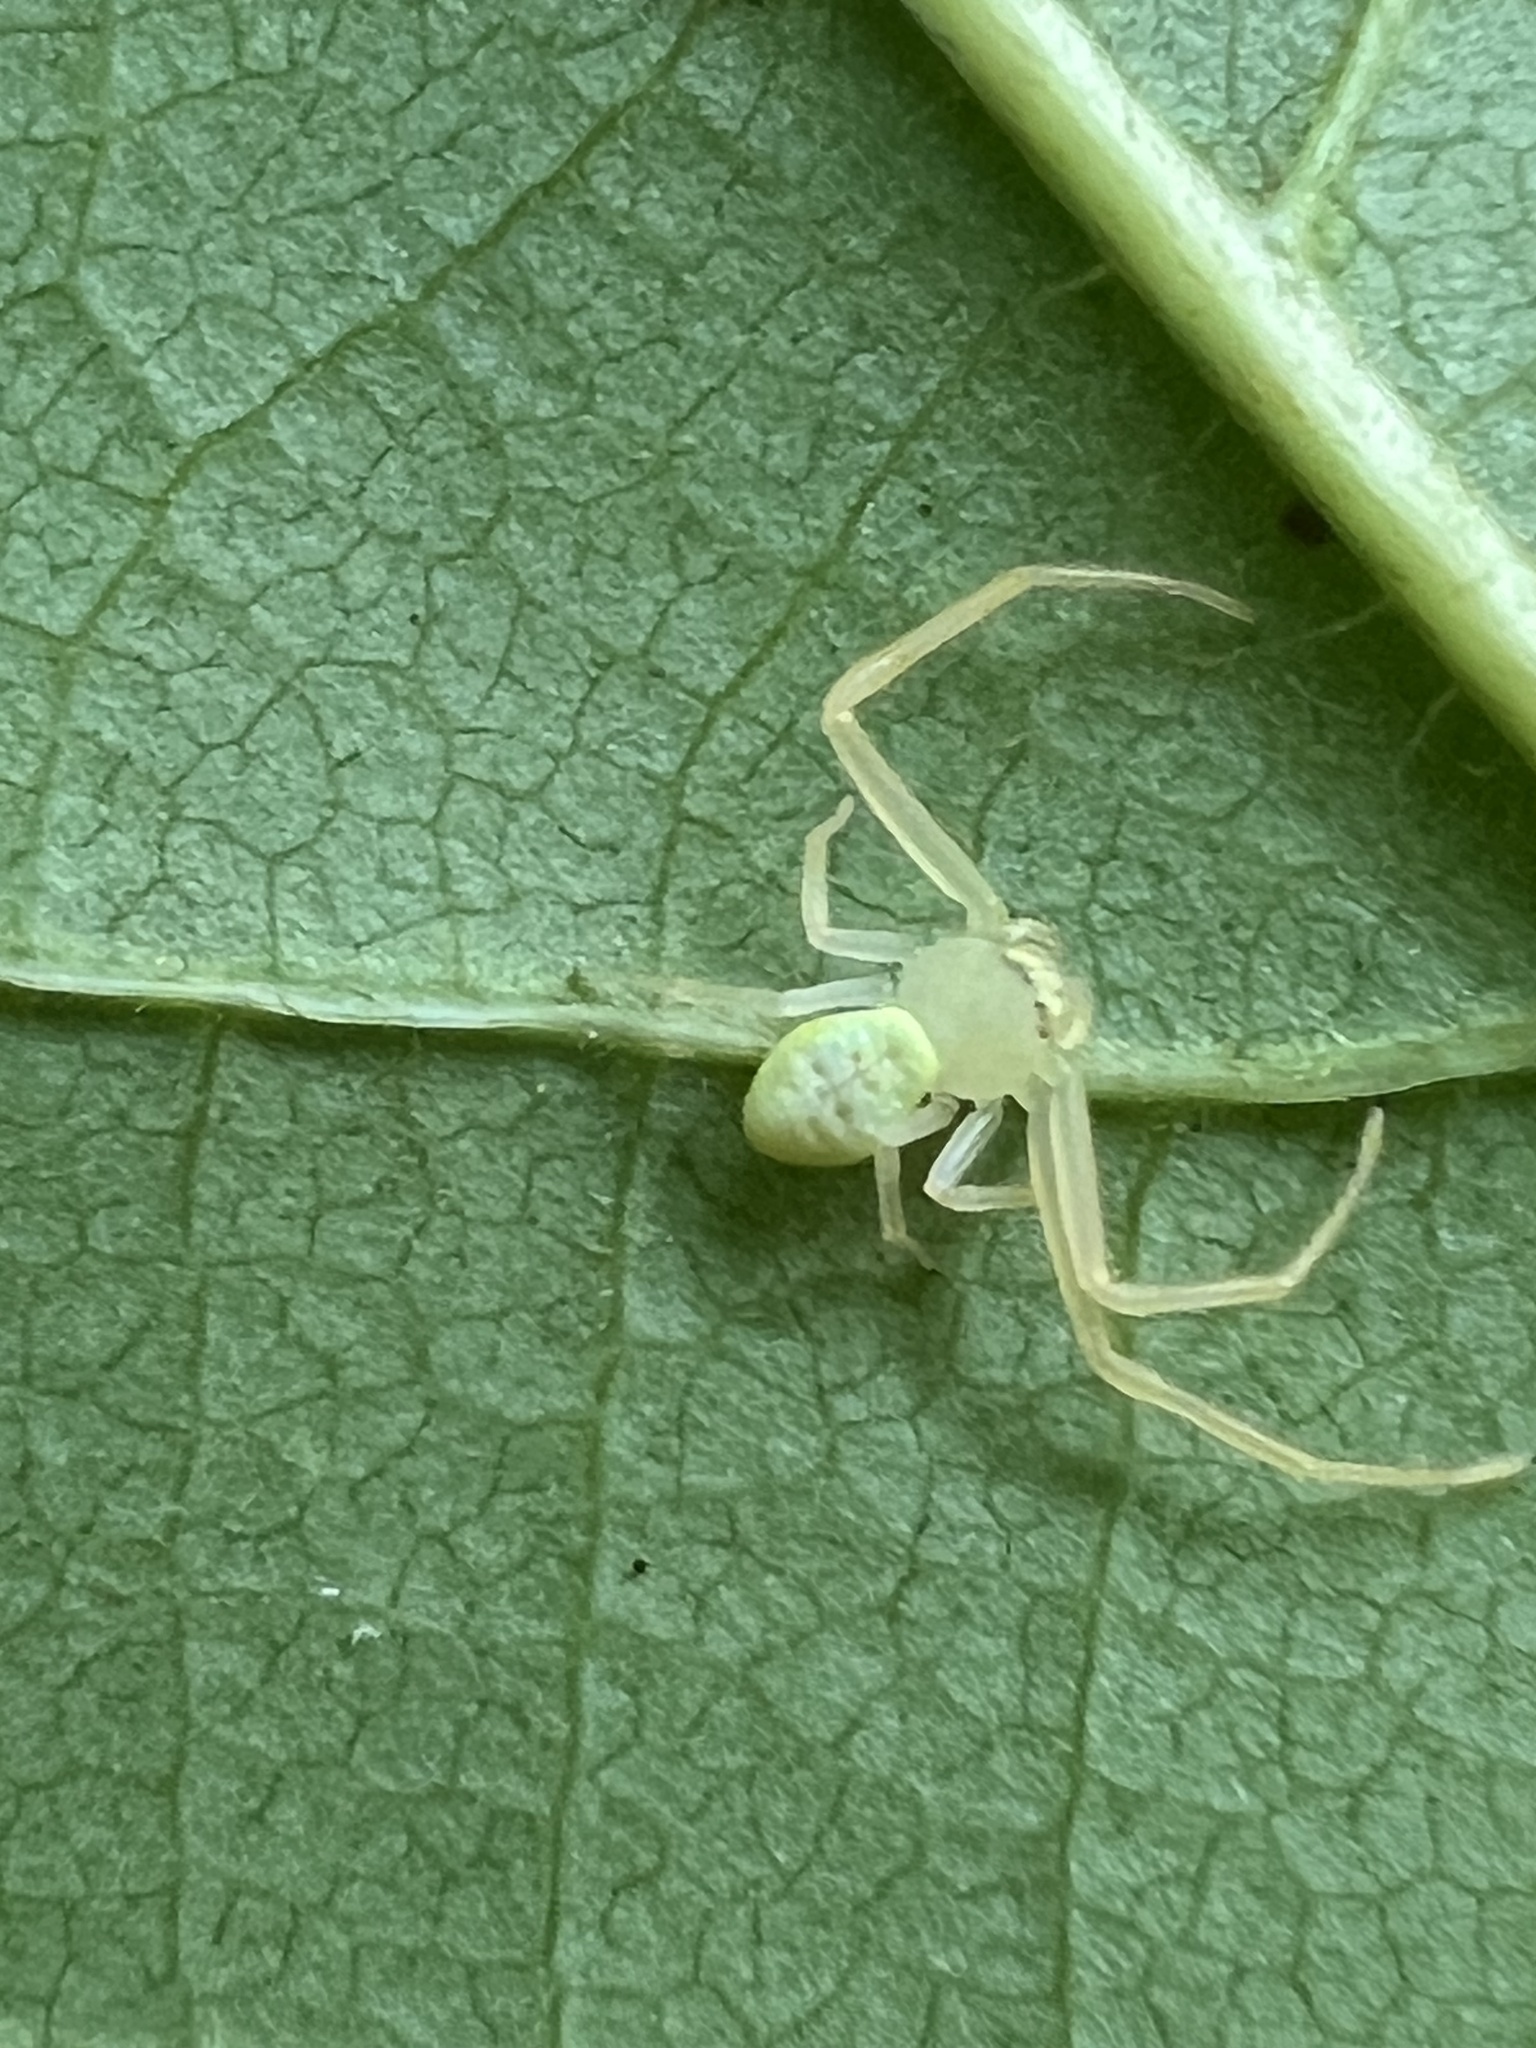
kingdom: Animalia
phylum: Arthropoda
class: Arachnida
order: Araneae
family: Thomisidae
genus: Misumessus
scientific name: Misumessus oblongus
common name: American green crab spider
